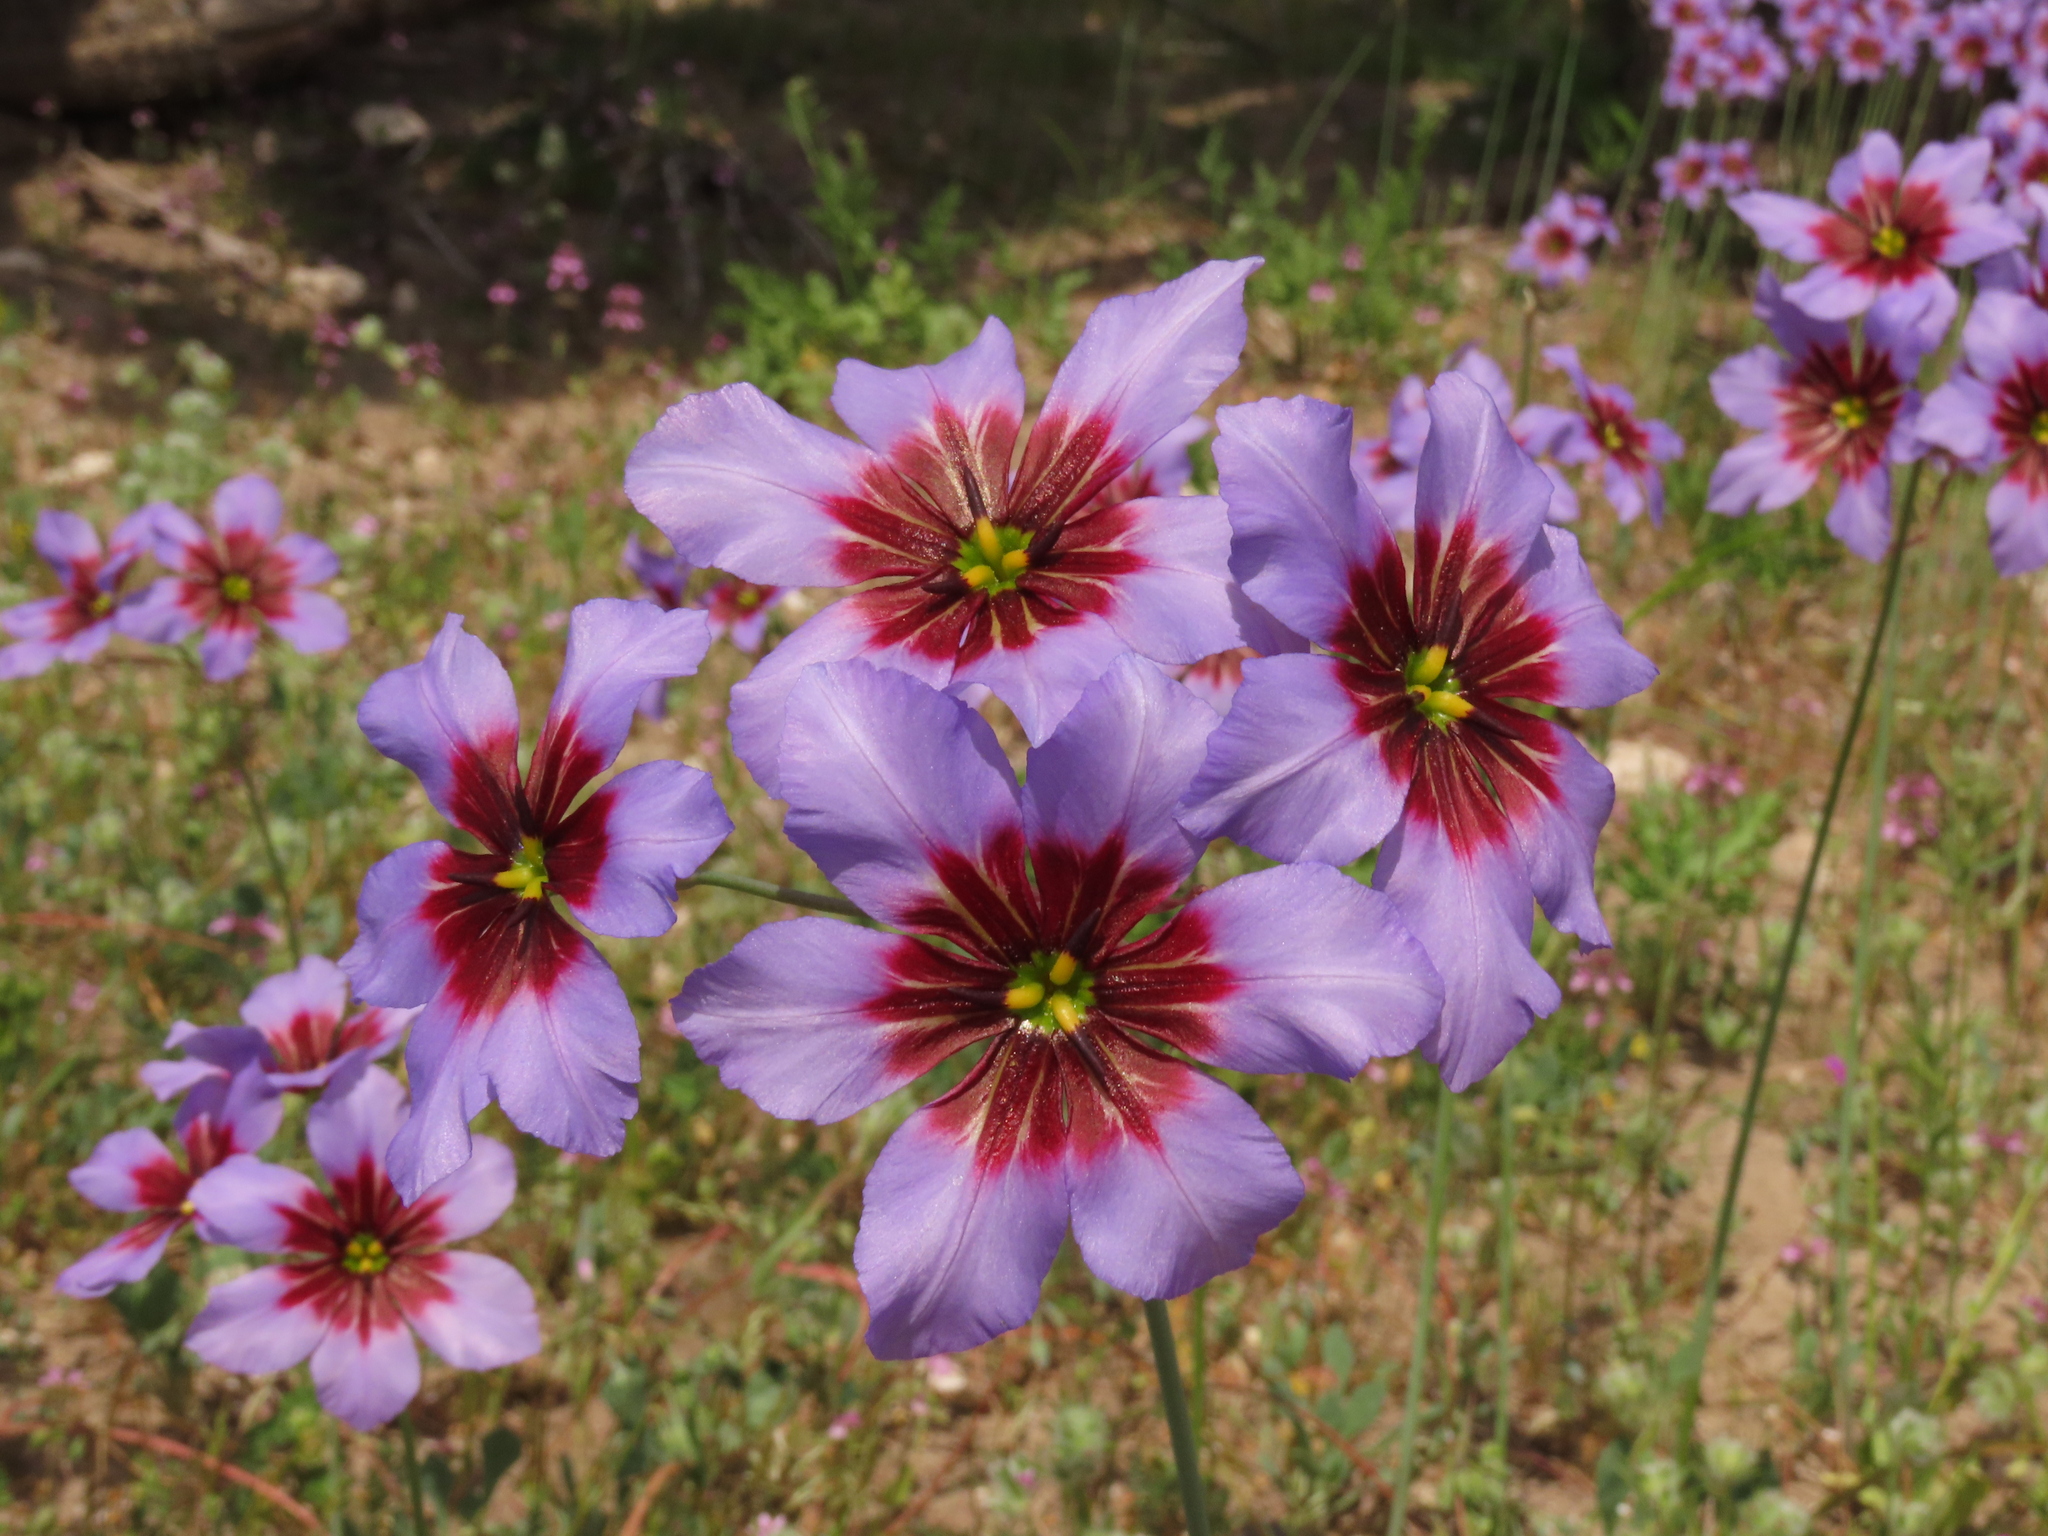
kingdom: Plantae
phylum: Tracheophyta
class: Liliopsida
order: Asparagales
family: Amaryllidaceae
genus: Leucocoryne
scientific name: Leucocoryne purpurea
